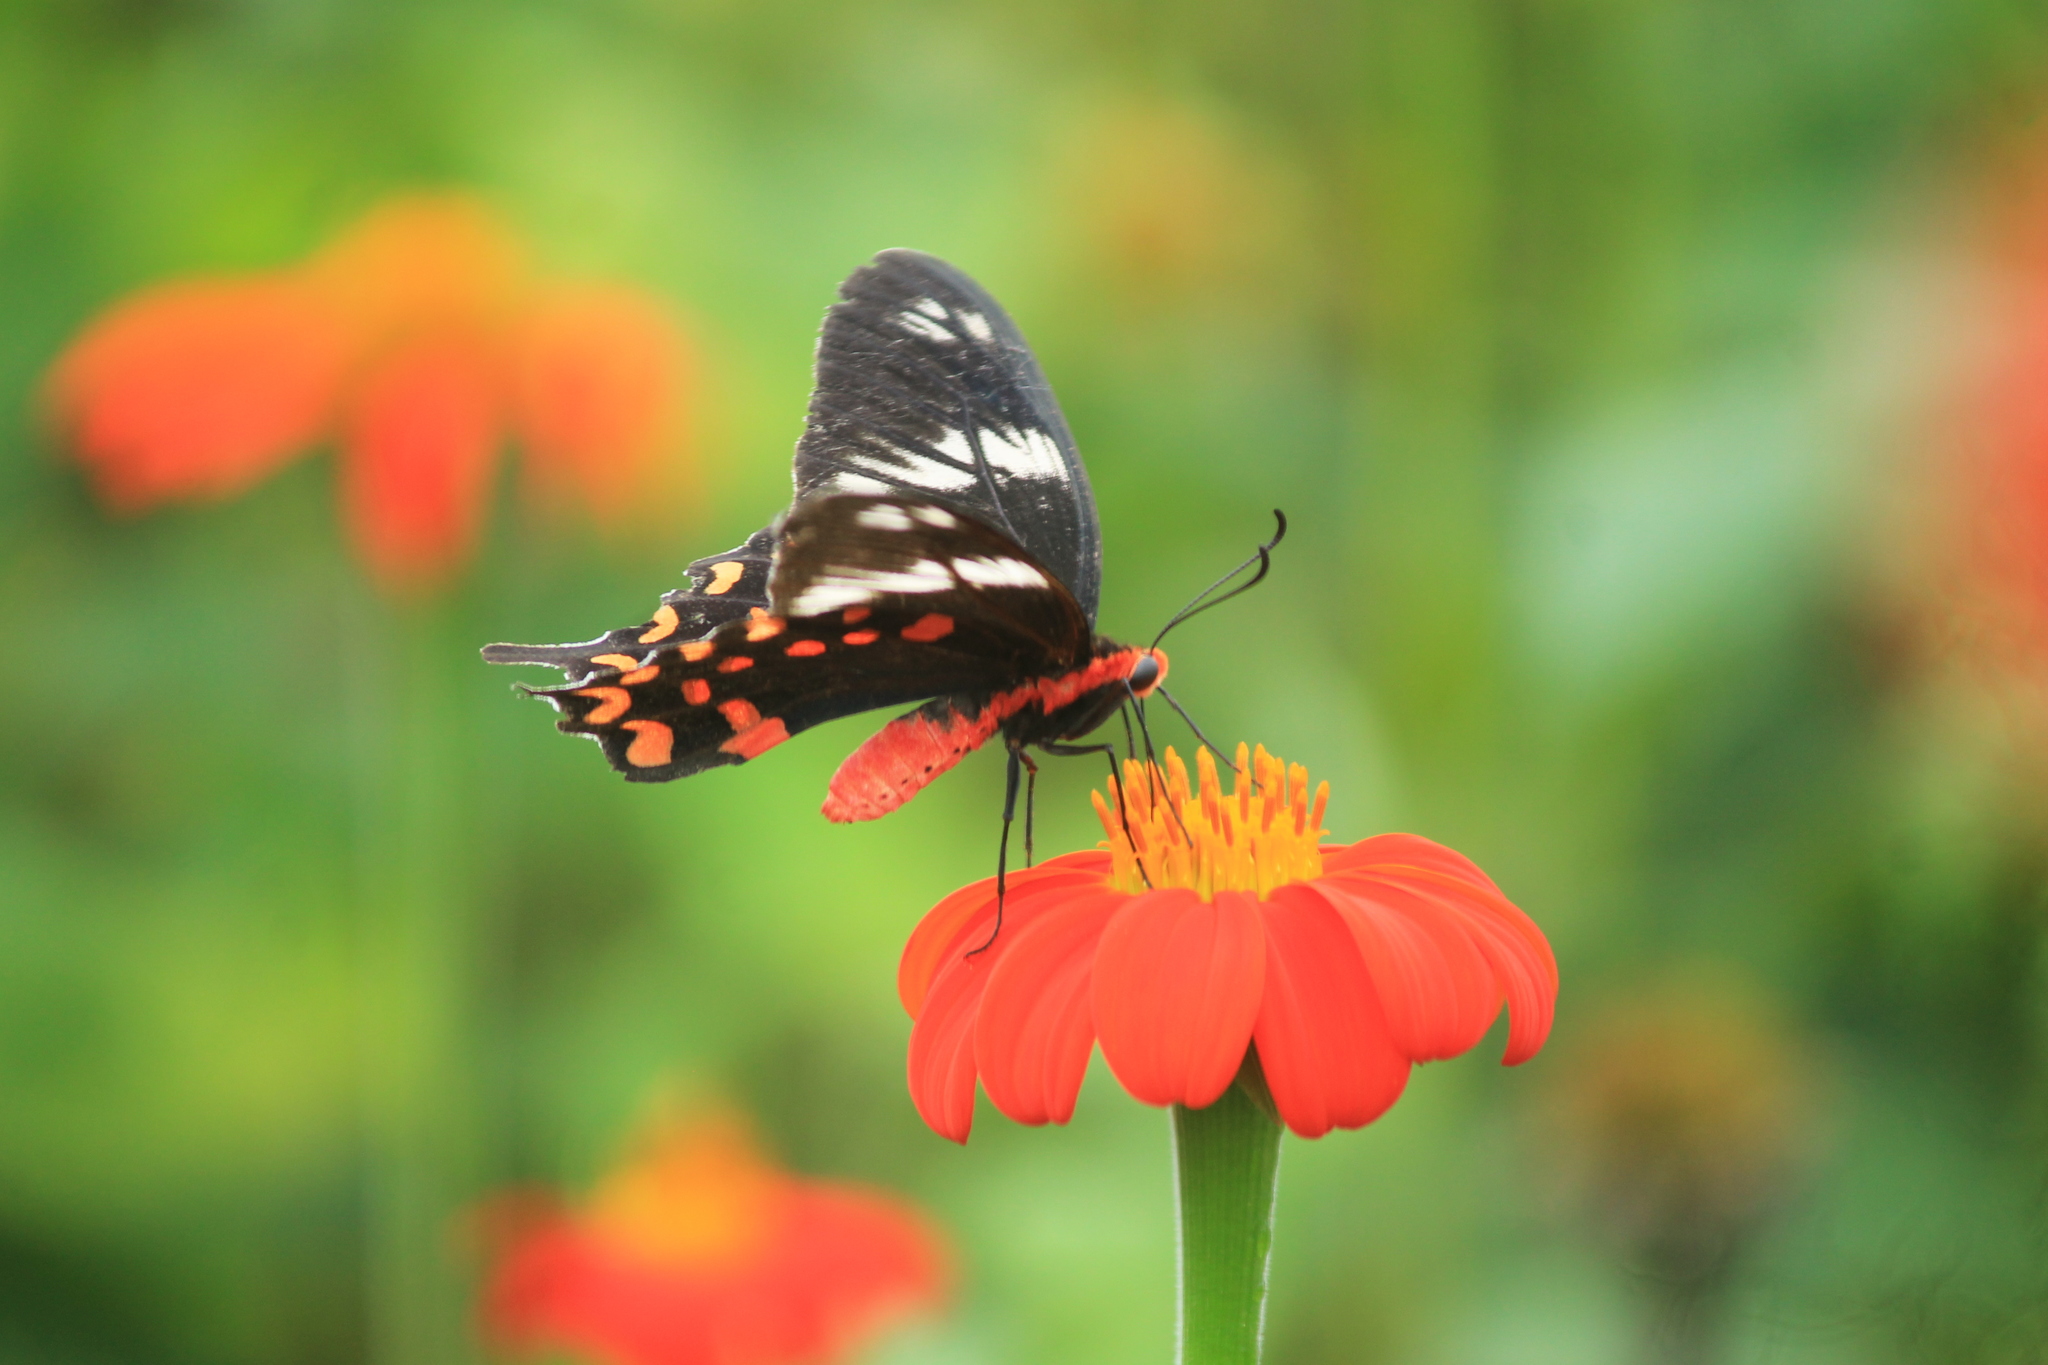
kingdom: Animalia
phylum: Arthropoda
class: Insecta
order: Lepidoptera
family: Papilionidae
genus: Pachliopta
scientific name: Pachliopta hector
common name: Crimson rose
